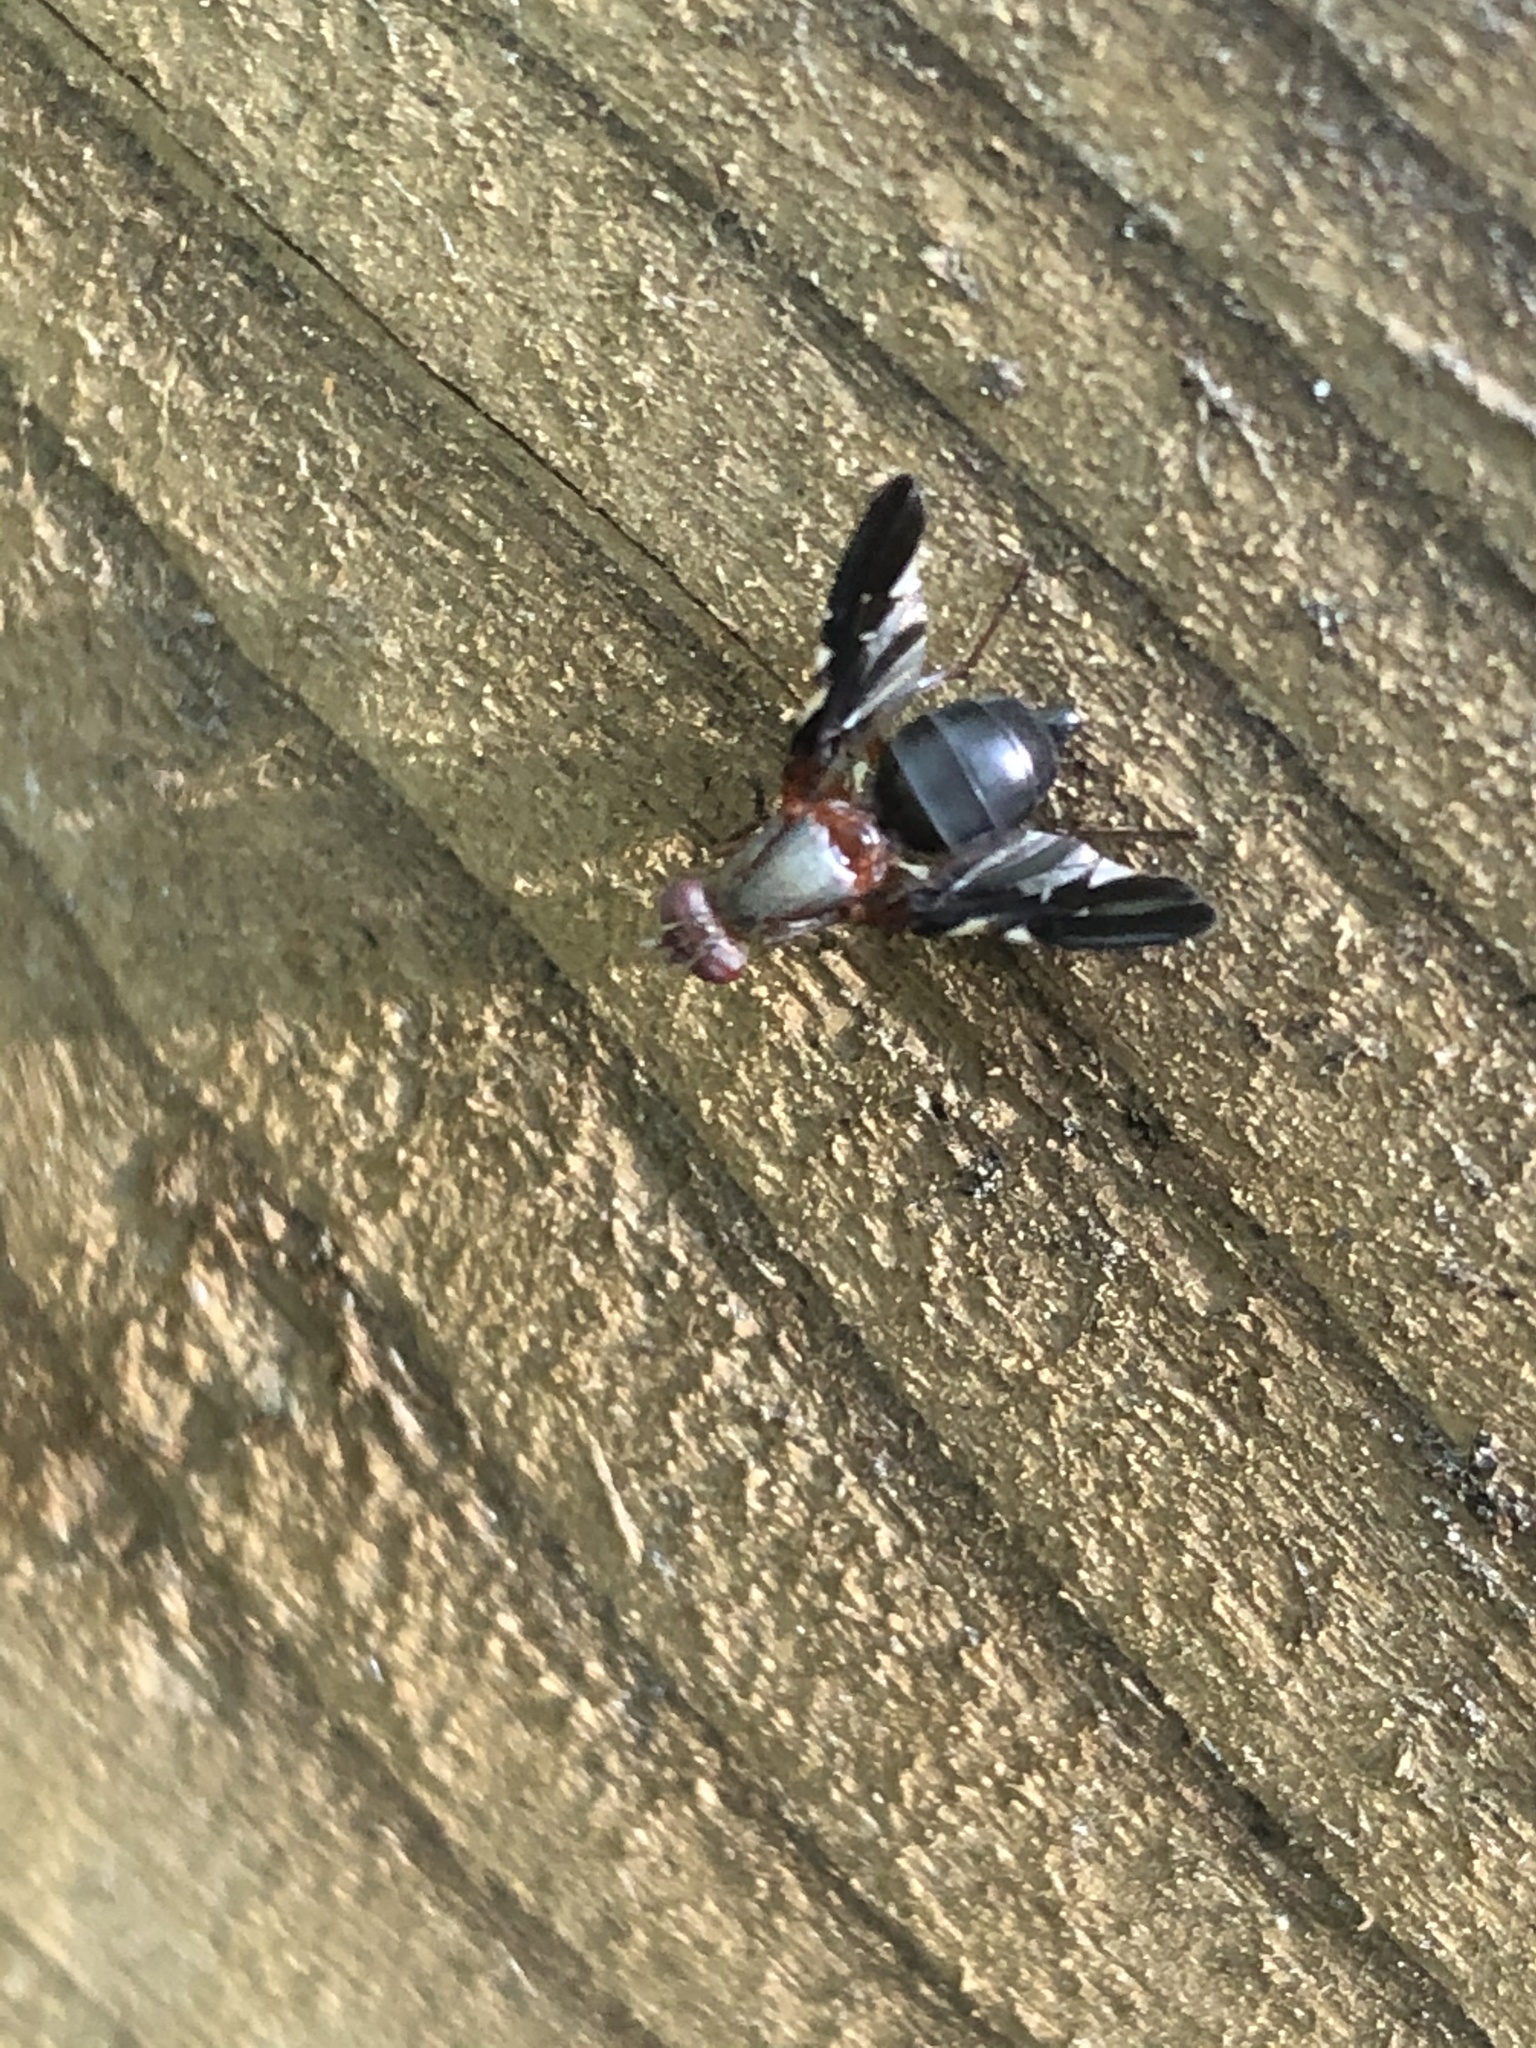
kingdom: Animalia
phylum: Arthropoda
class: Insecta
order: Diptera
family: Ulidiidae
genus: Delphinia
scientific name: Delphinia picta
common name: Common picture-winged fly
